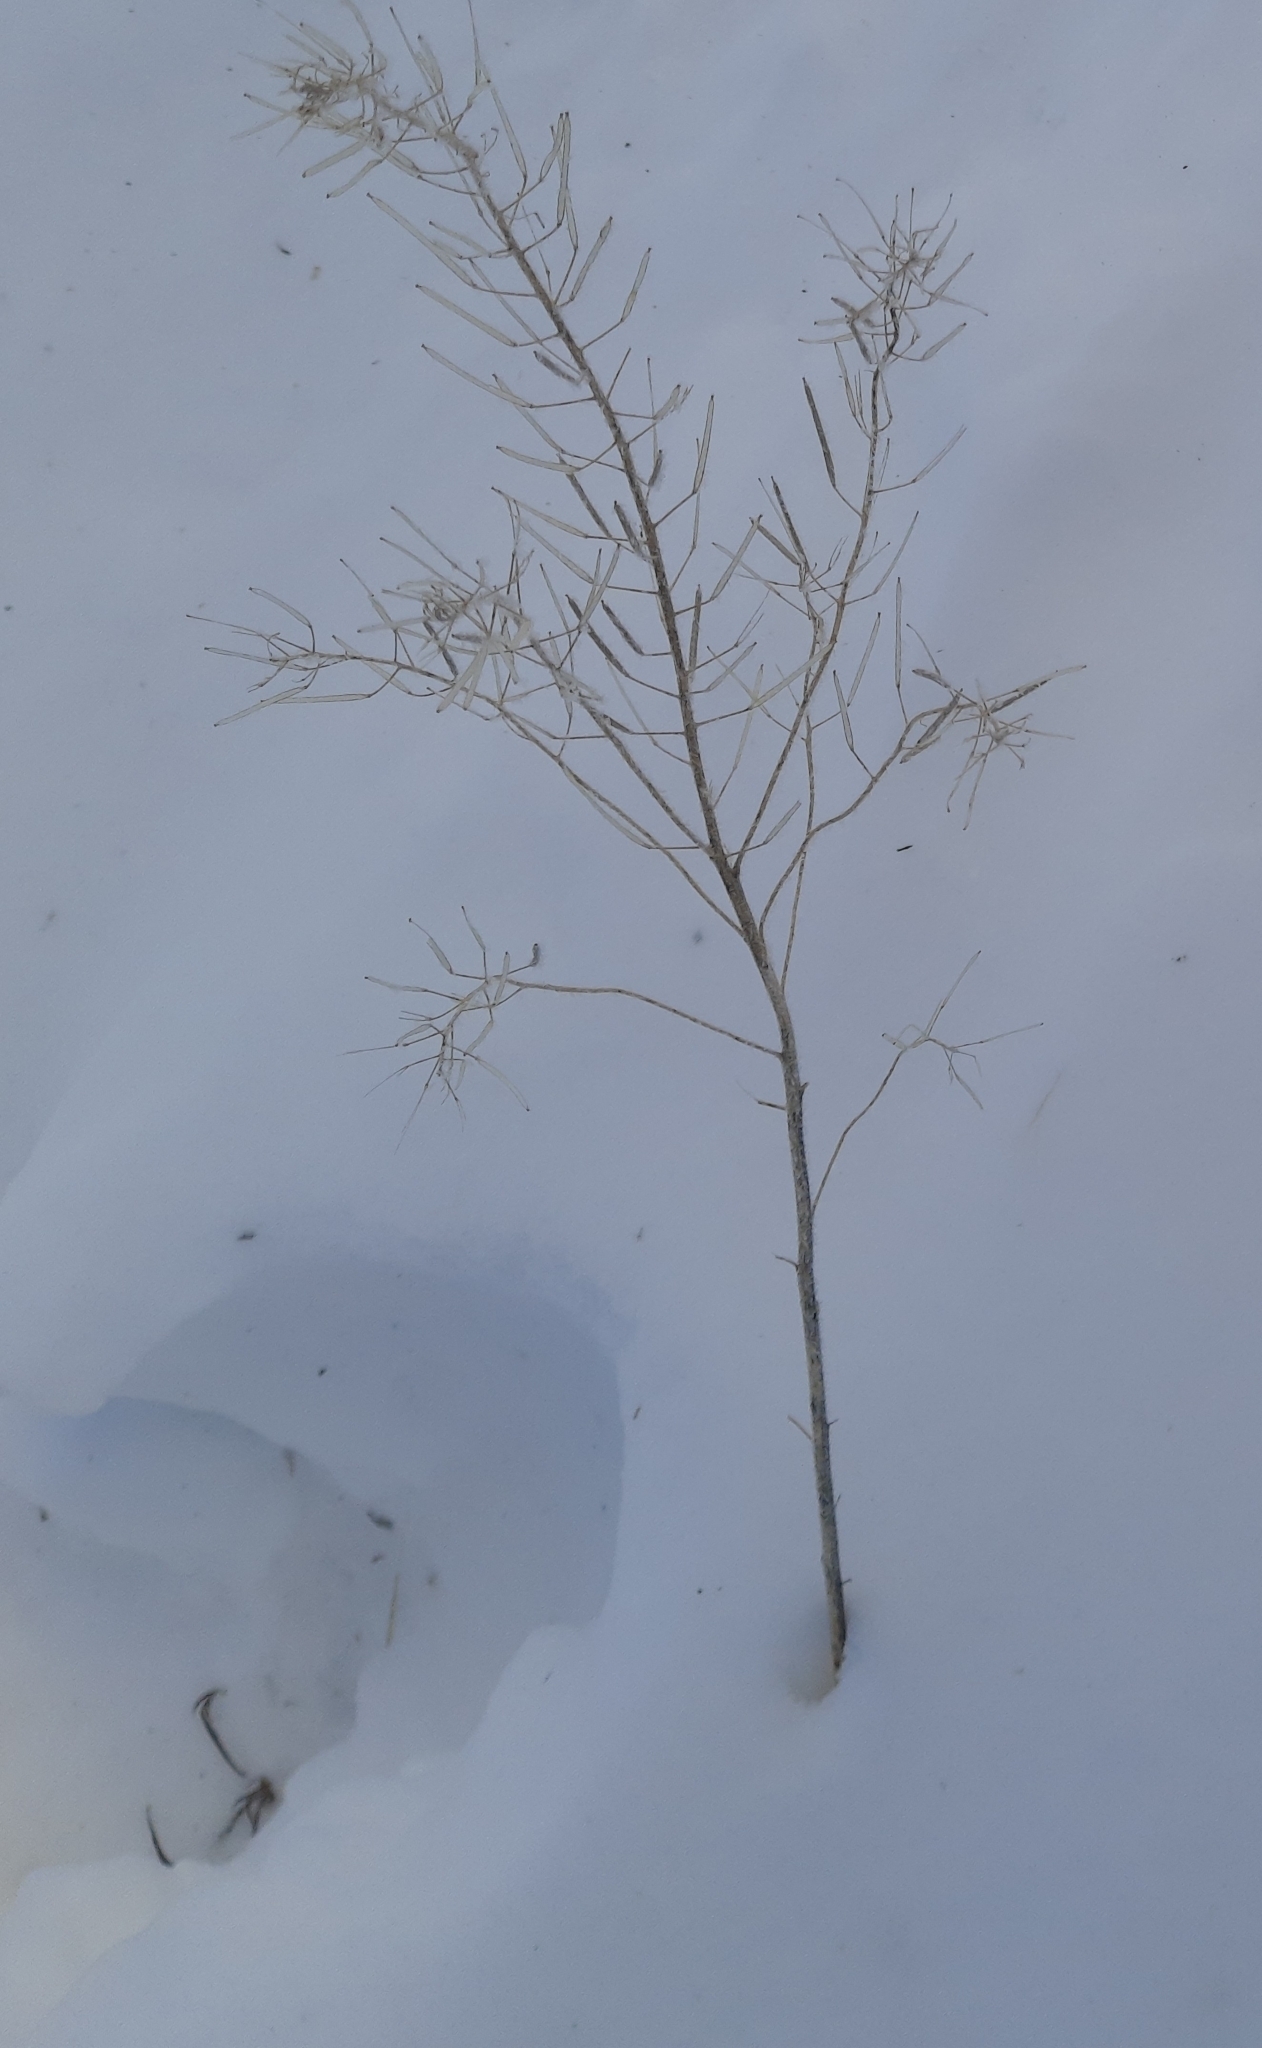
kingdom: Plantae
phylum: Tracheophyta
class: Magnoliopsida
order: Brassicales
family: Brassicaceae
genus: Erysimum
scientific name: Erysimum cheiranthoides
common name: Treacle mustard
